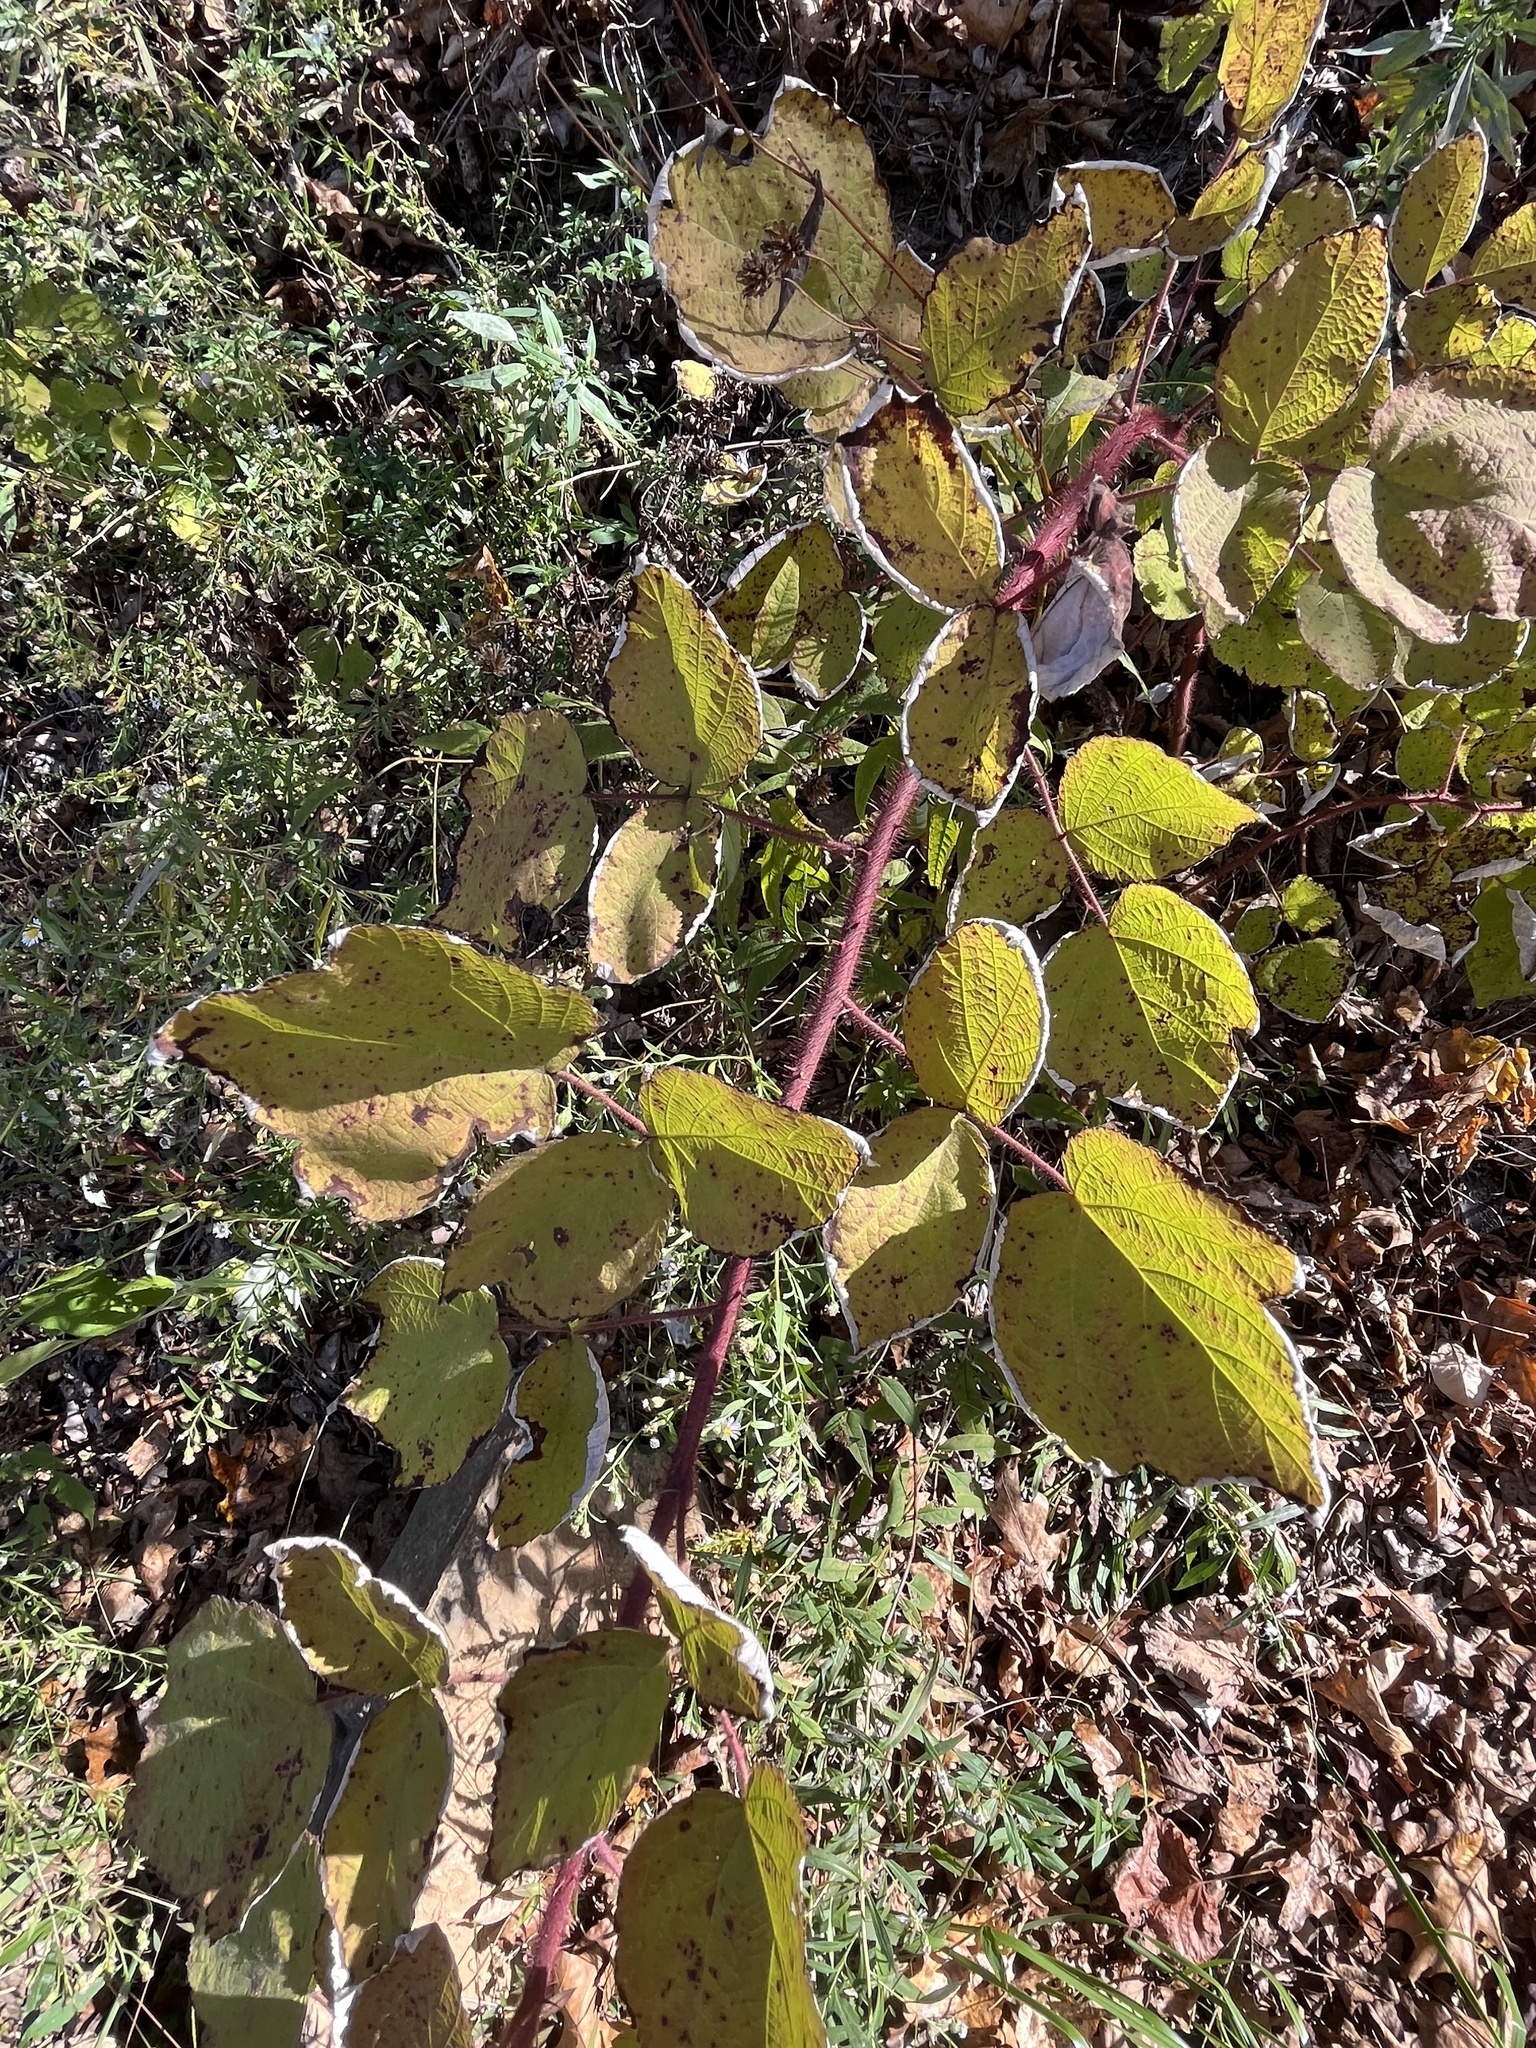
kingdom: Plantae
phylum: Tracheophyta
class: Magnoliopsida
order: Rosales
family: Rosaceae
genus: Rubus
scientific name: Rubus phoenicolasius
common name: Japanese wineberry
